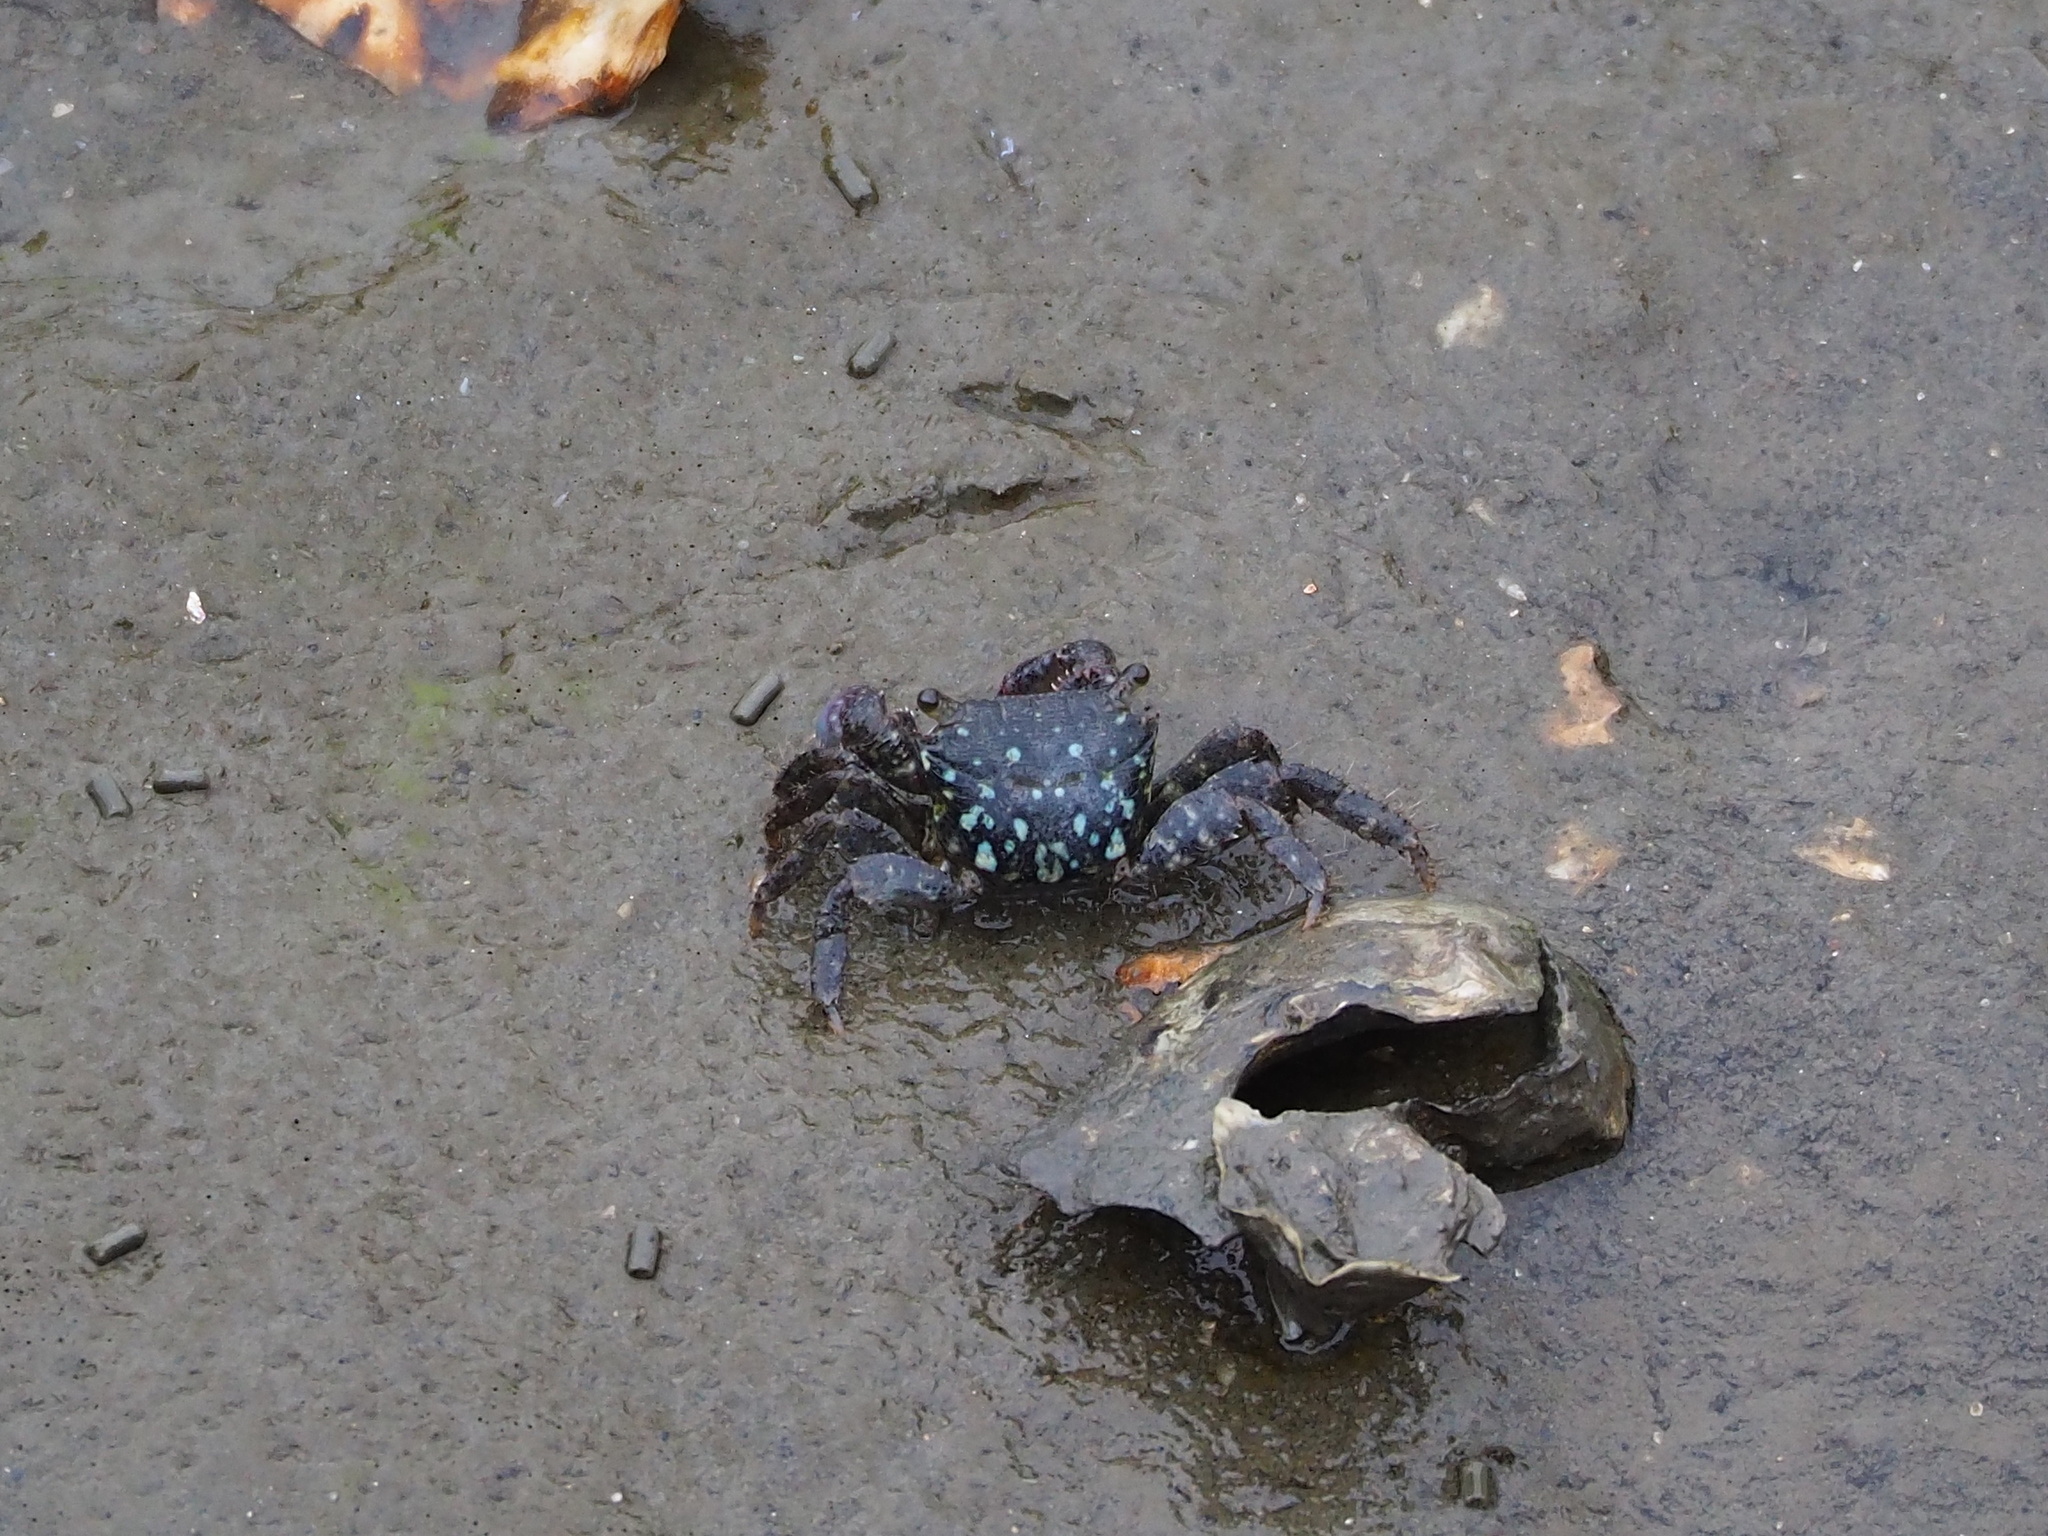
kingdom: Animalia
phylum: Arthropoda
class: Malacostraca
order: Decapoda
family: Grapsidae
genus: Metopograpsus
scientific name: Metopograpsus thukuhar
